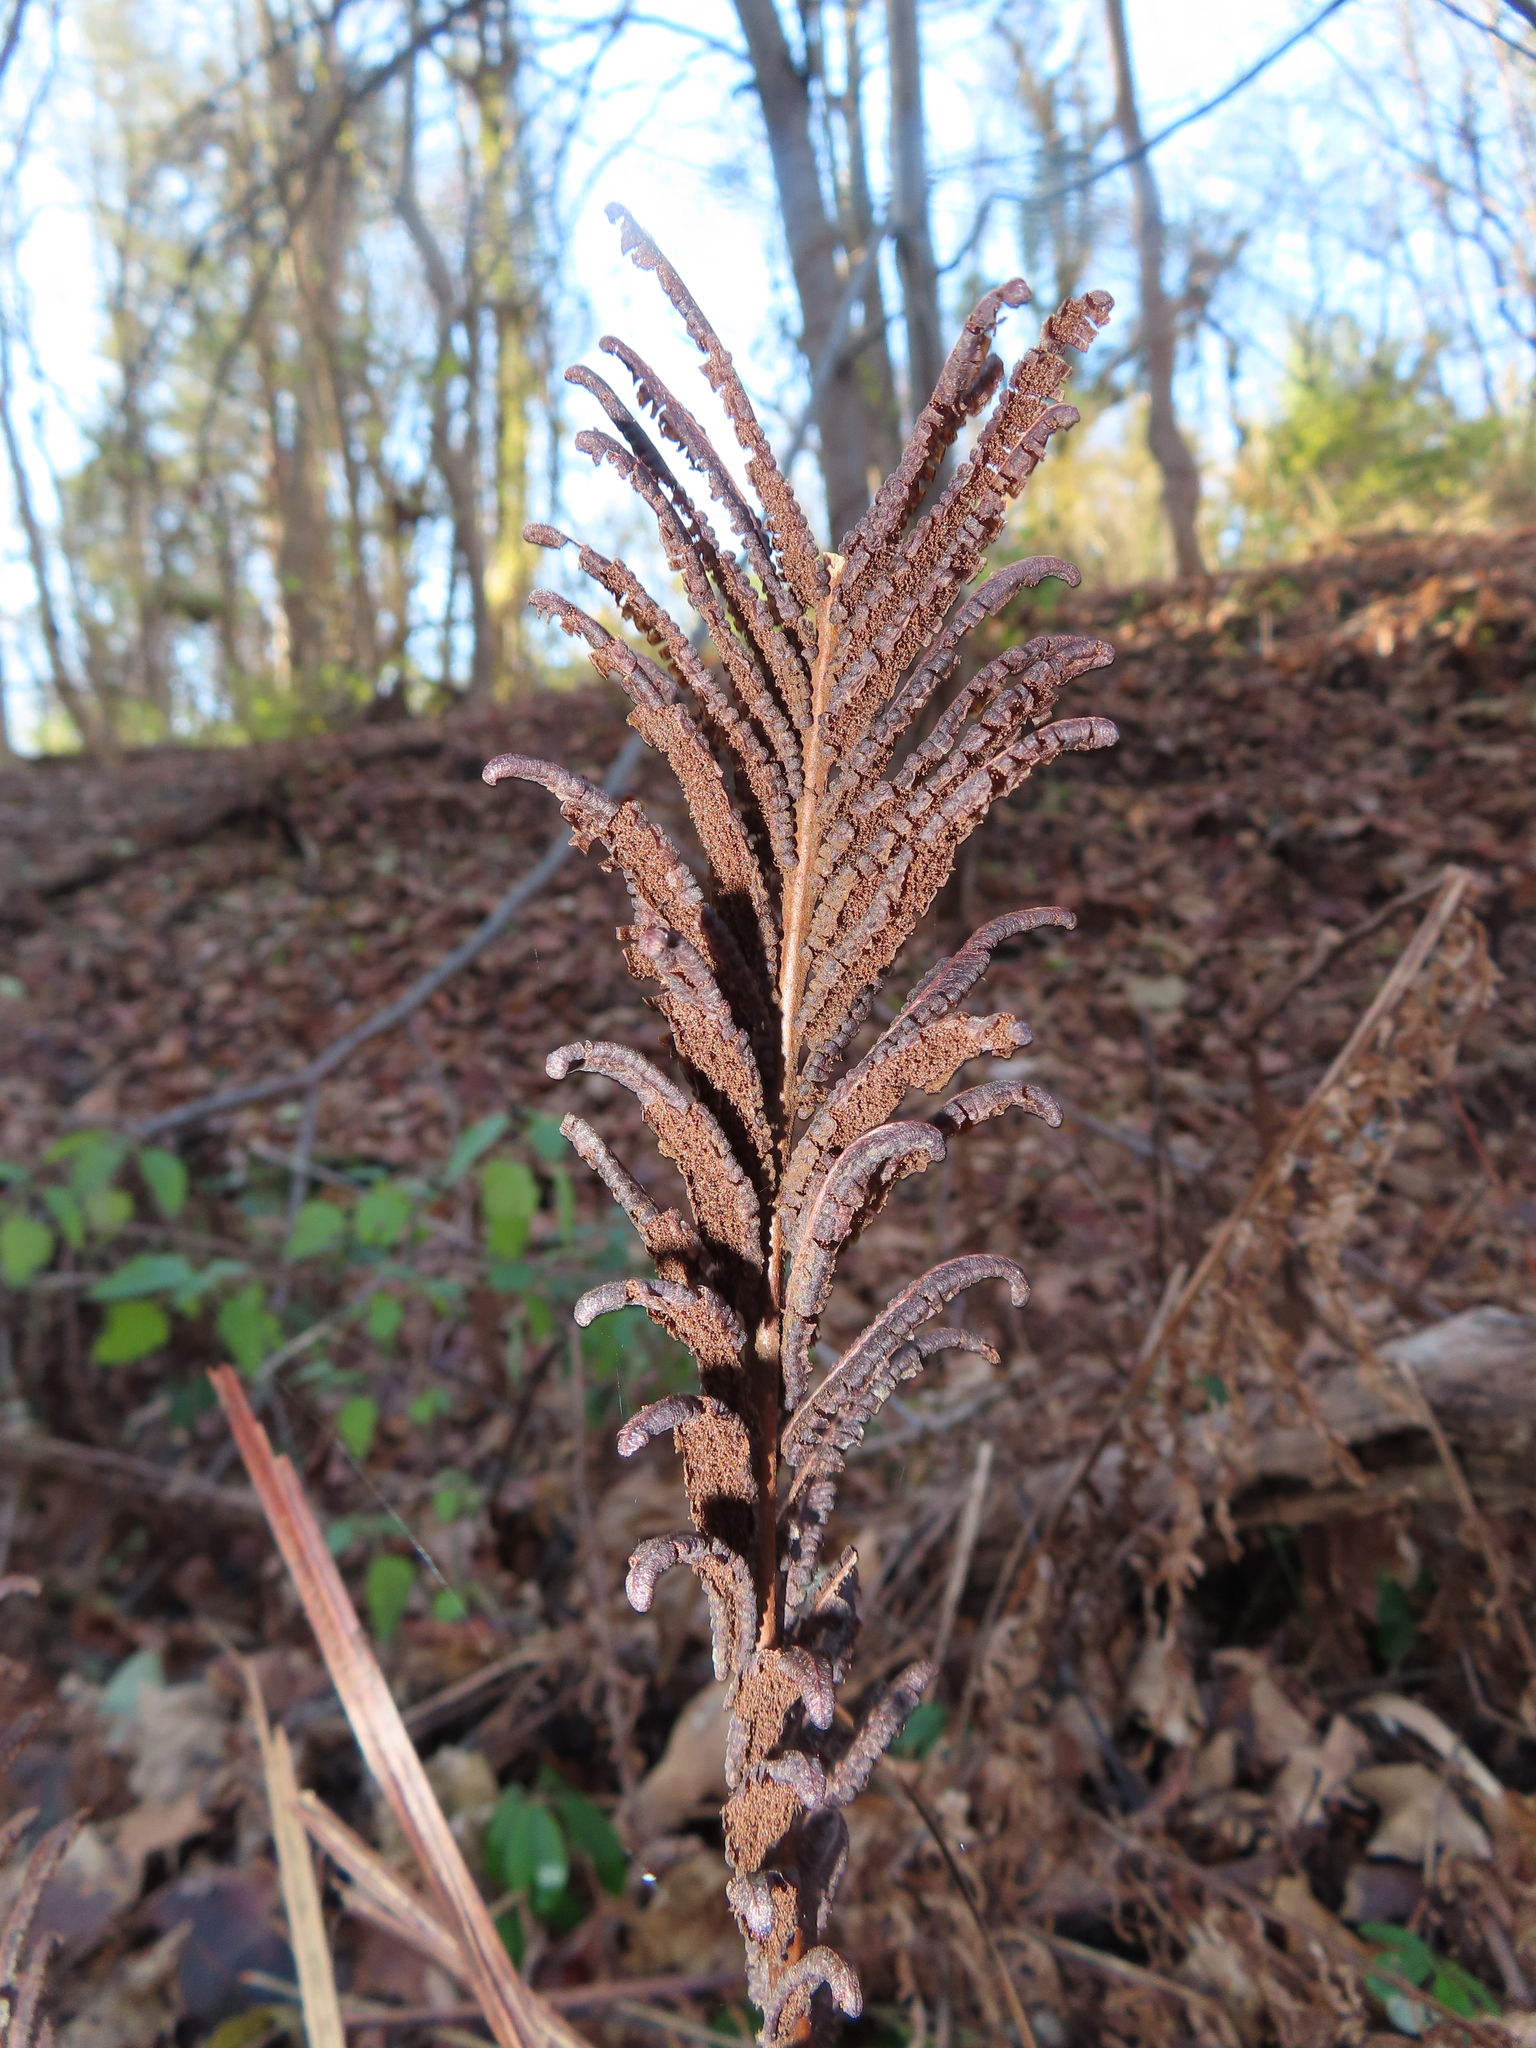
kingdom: Plantae
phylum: Tracheophyta
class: Polypodiopsida
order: Polypodiales
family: Onocleaceae
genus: Matteuccia
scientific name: Matteuccia struthiopteris
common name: Ostrich fern
